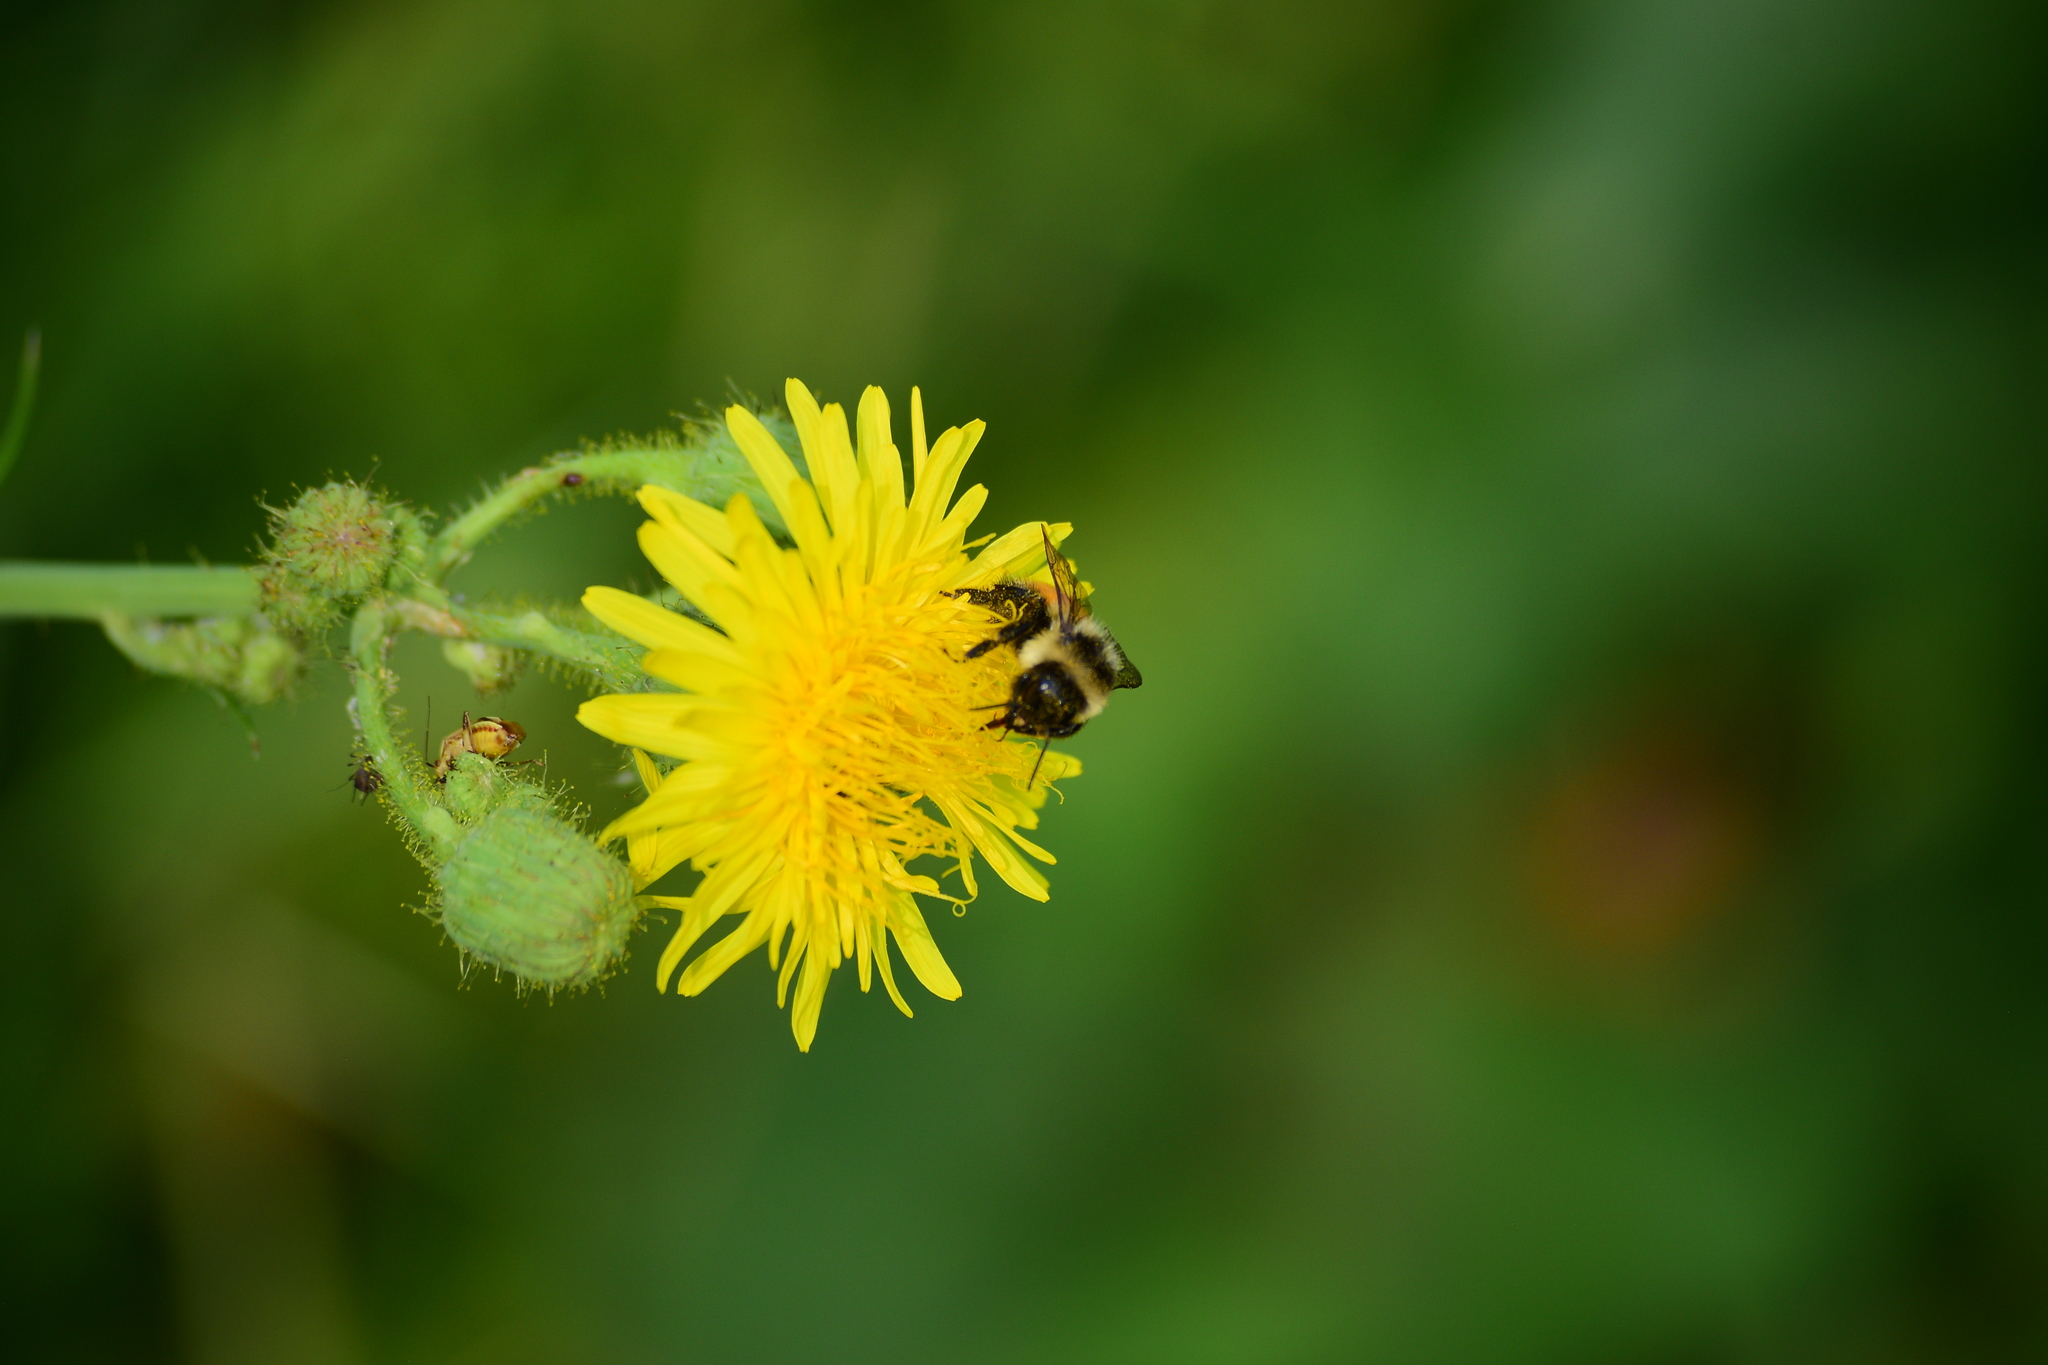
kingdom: Animalia
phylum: Arthropoda
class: Insecta
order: Hymenoptera
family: Apidae
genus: Bombus
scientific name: Bombus ternarius
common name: Tri-colored bumble bee
